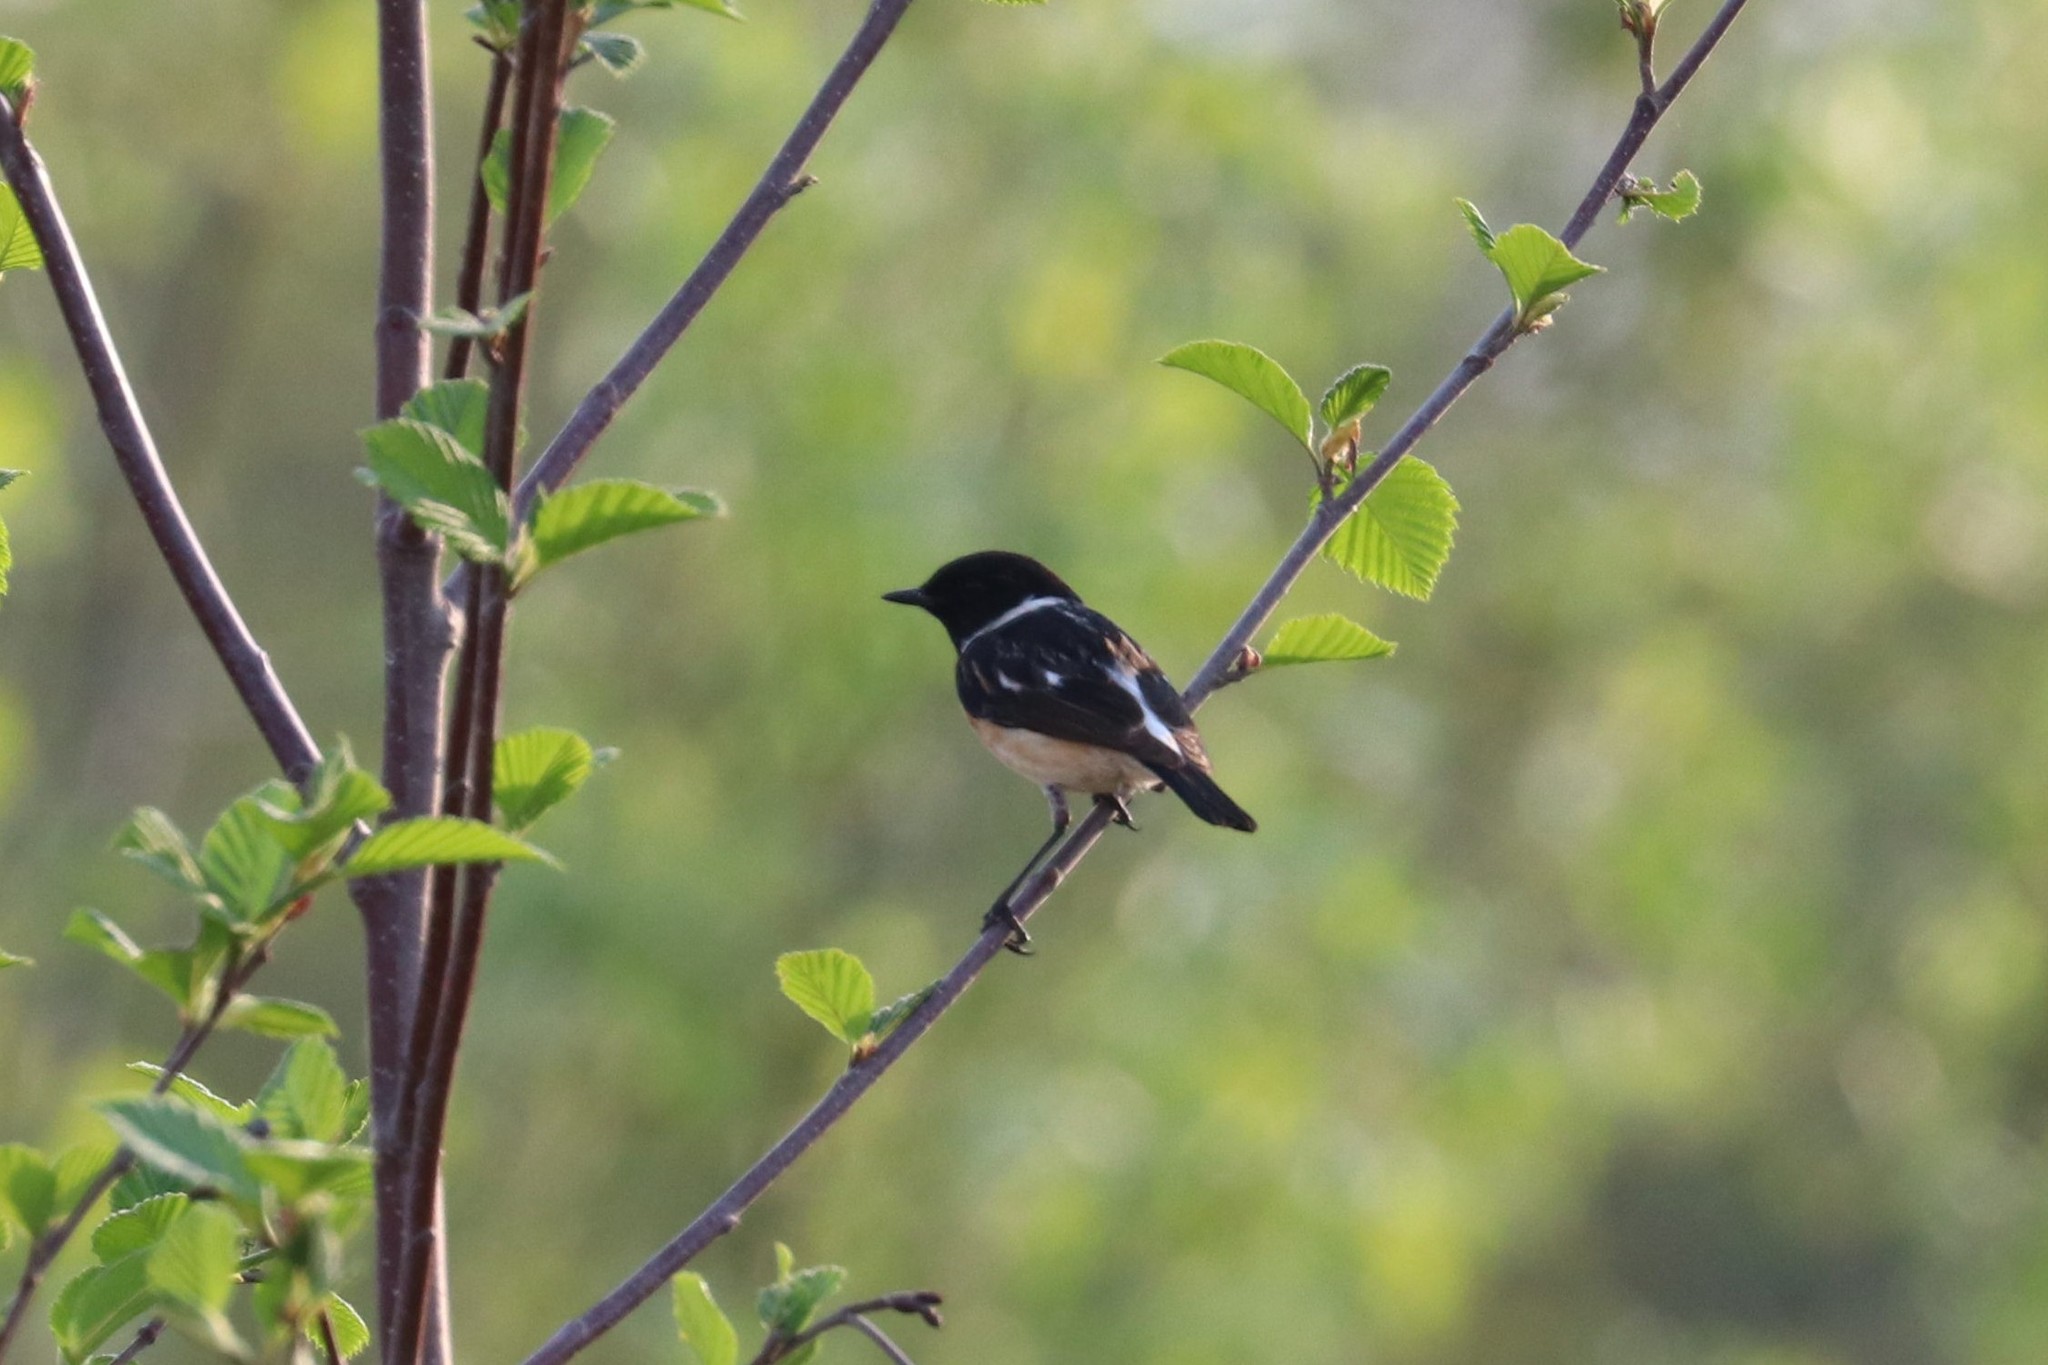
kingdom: Animalia
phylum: Chordata
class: Aves
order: Passeriformes
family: Muscicapidae
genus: Saxicola
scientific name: Saxicola maurus
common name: Siberian stonechat
